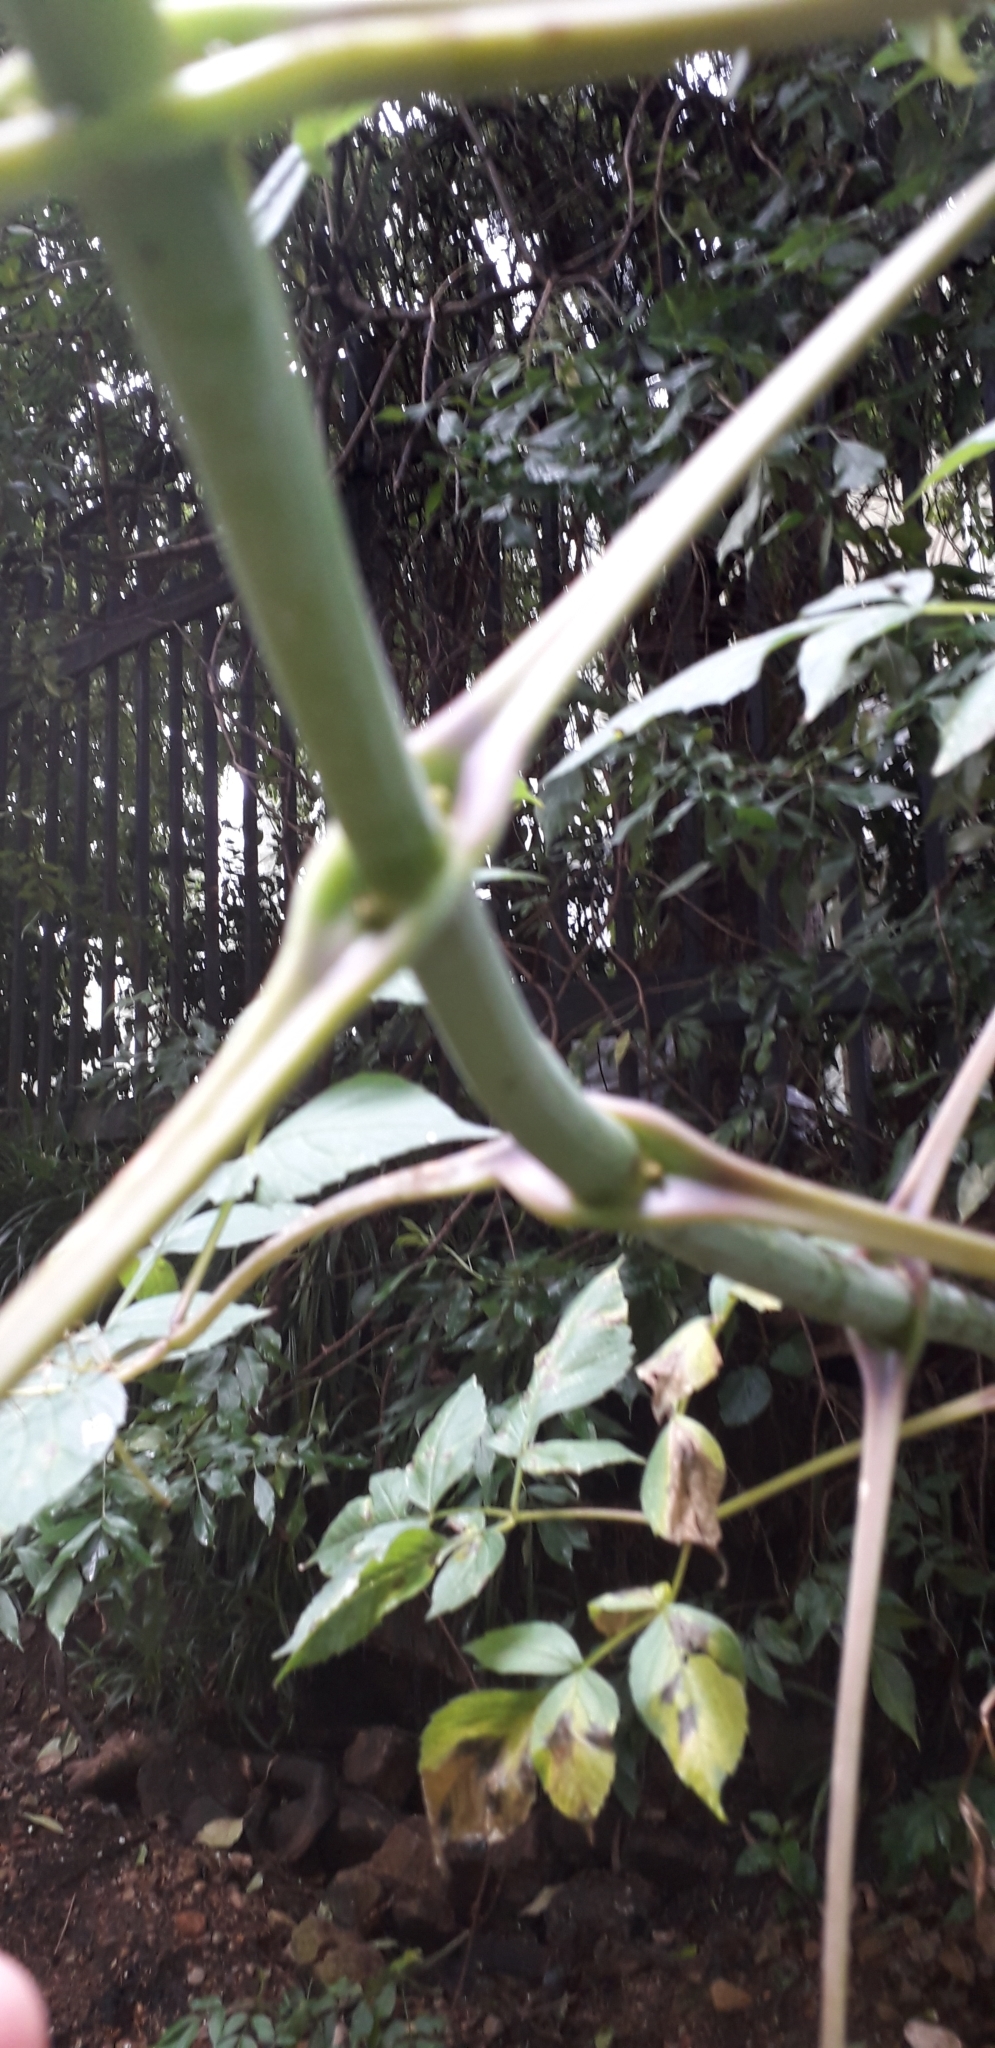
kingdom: Plantae
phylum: Tracheophyta
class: Magnoliopsida
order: Asterales
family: Asteraceae
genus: Dahlia
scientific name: Dahlia imperialis
